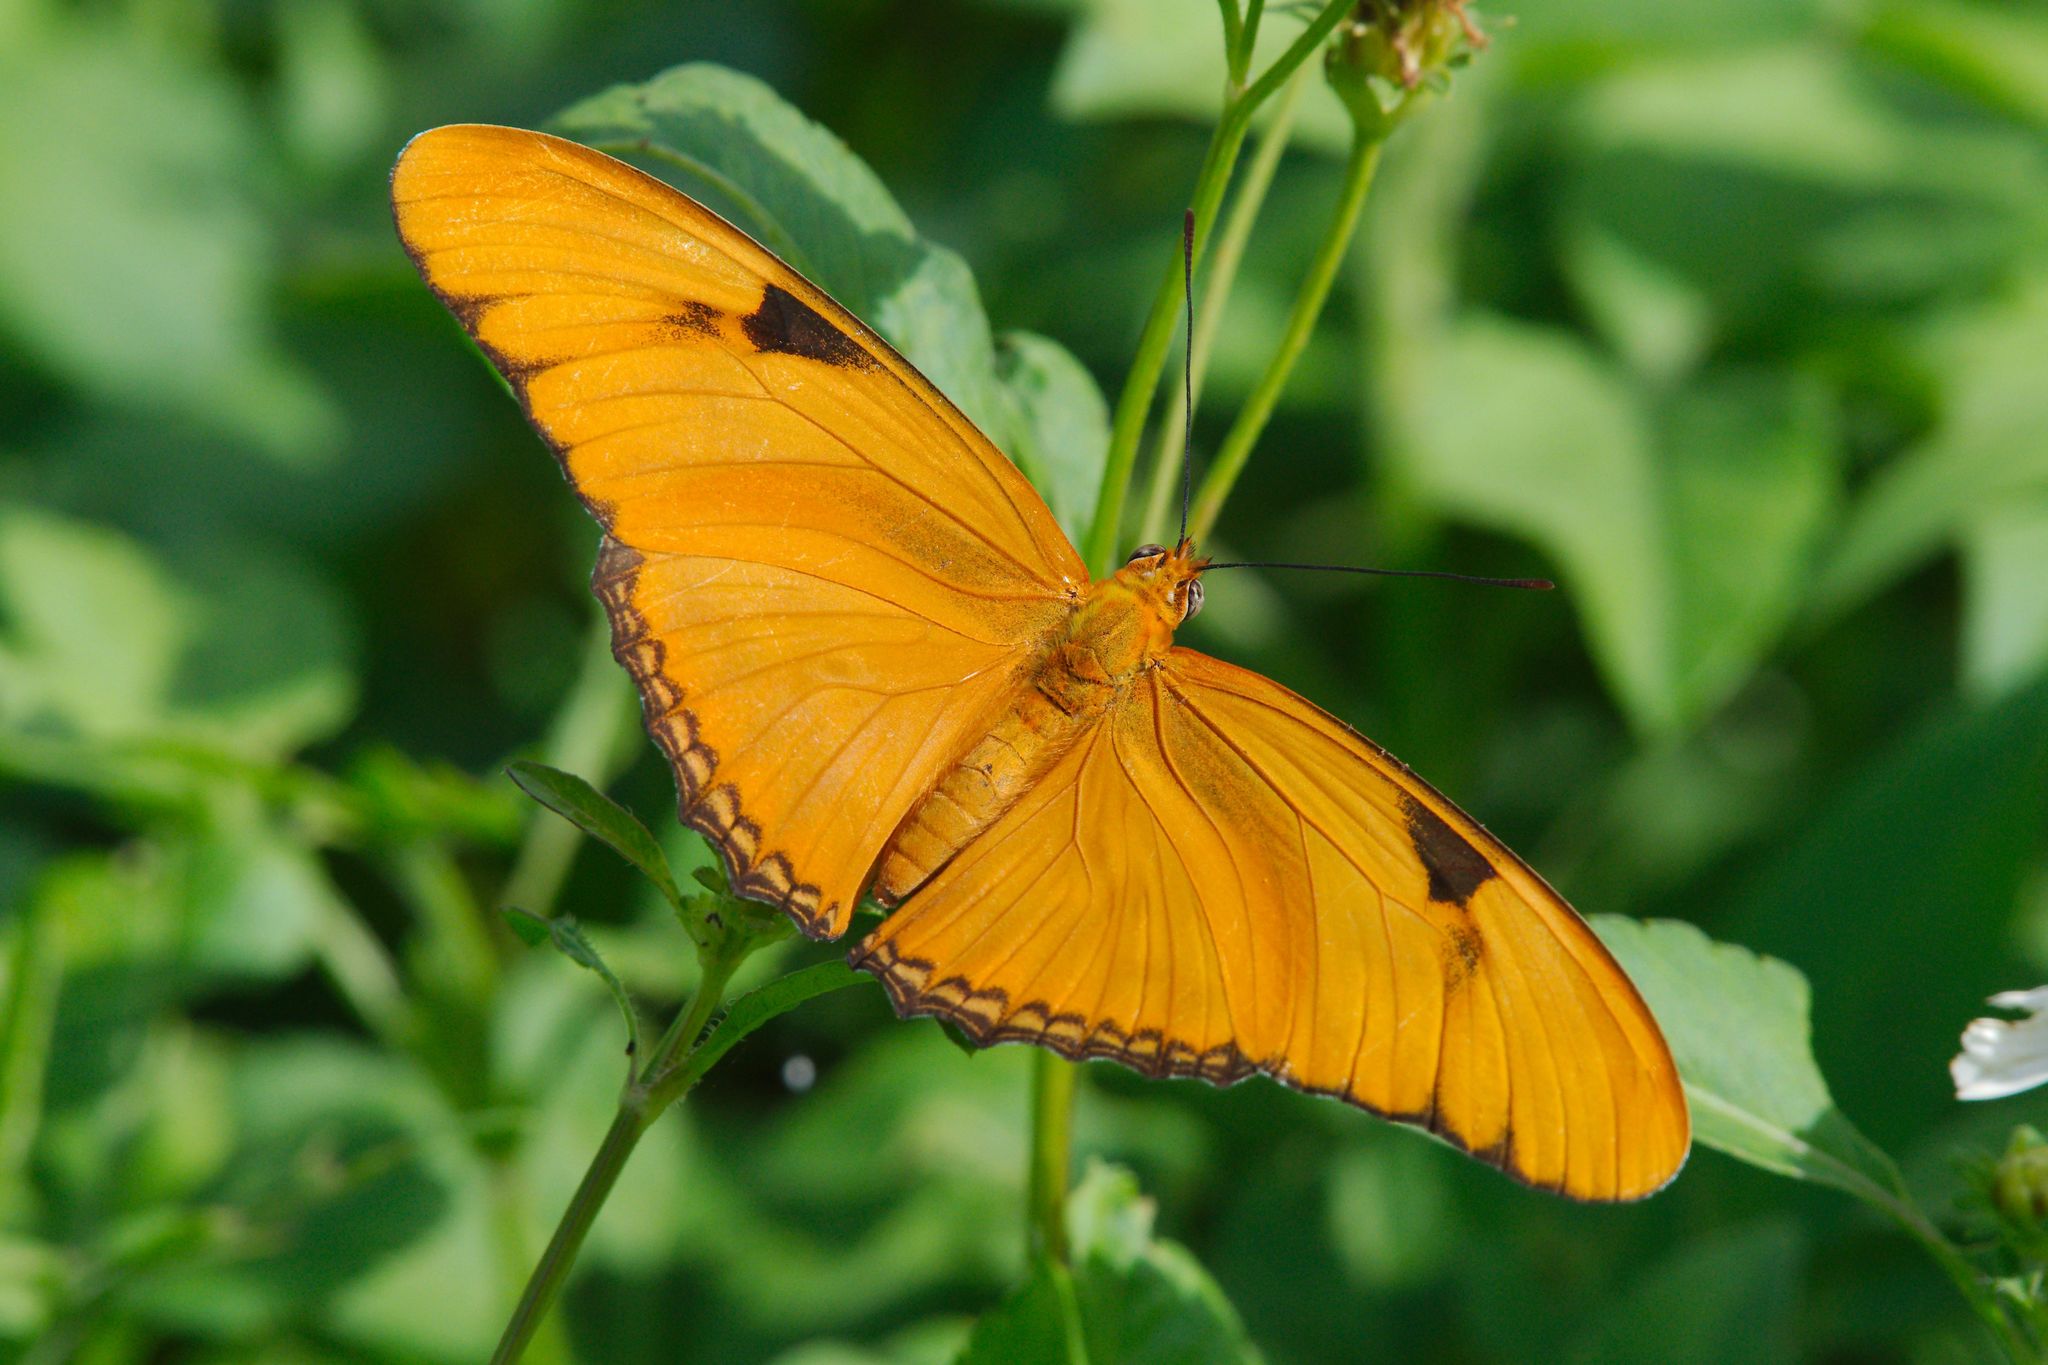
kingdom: Animalia
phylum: Arthropoda
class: Insecta
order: Lepidoptera
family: Nymphalidae
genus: Dryas
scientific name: Dryas iulia
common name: Flambeau
